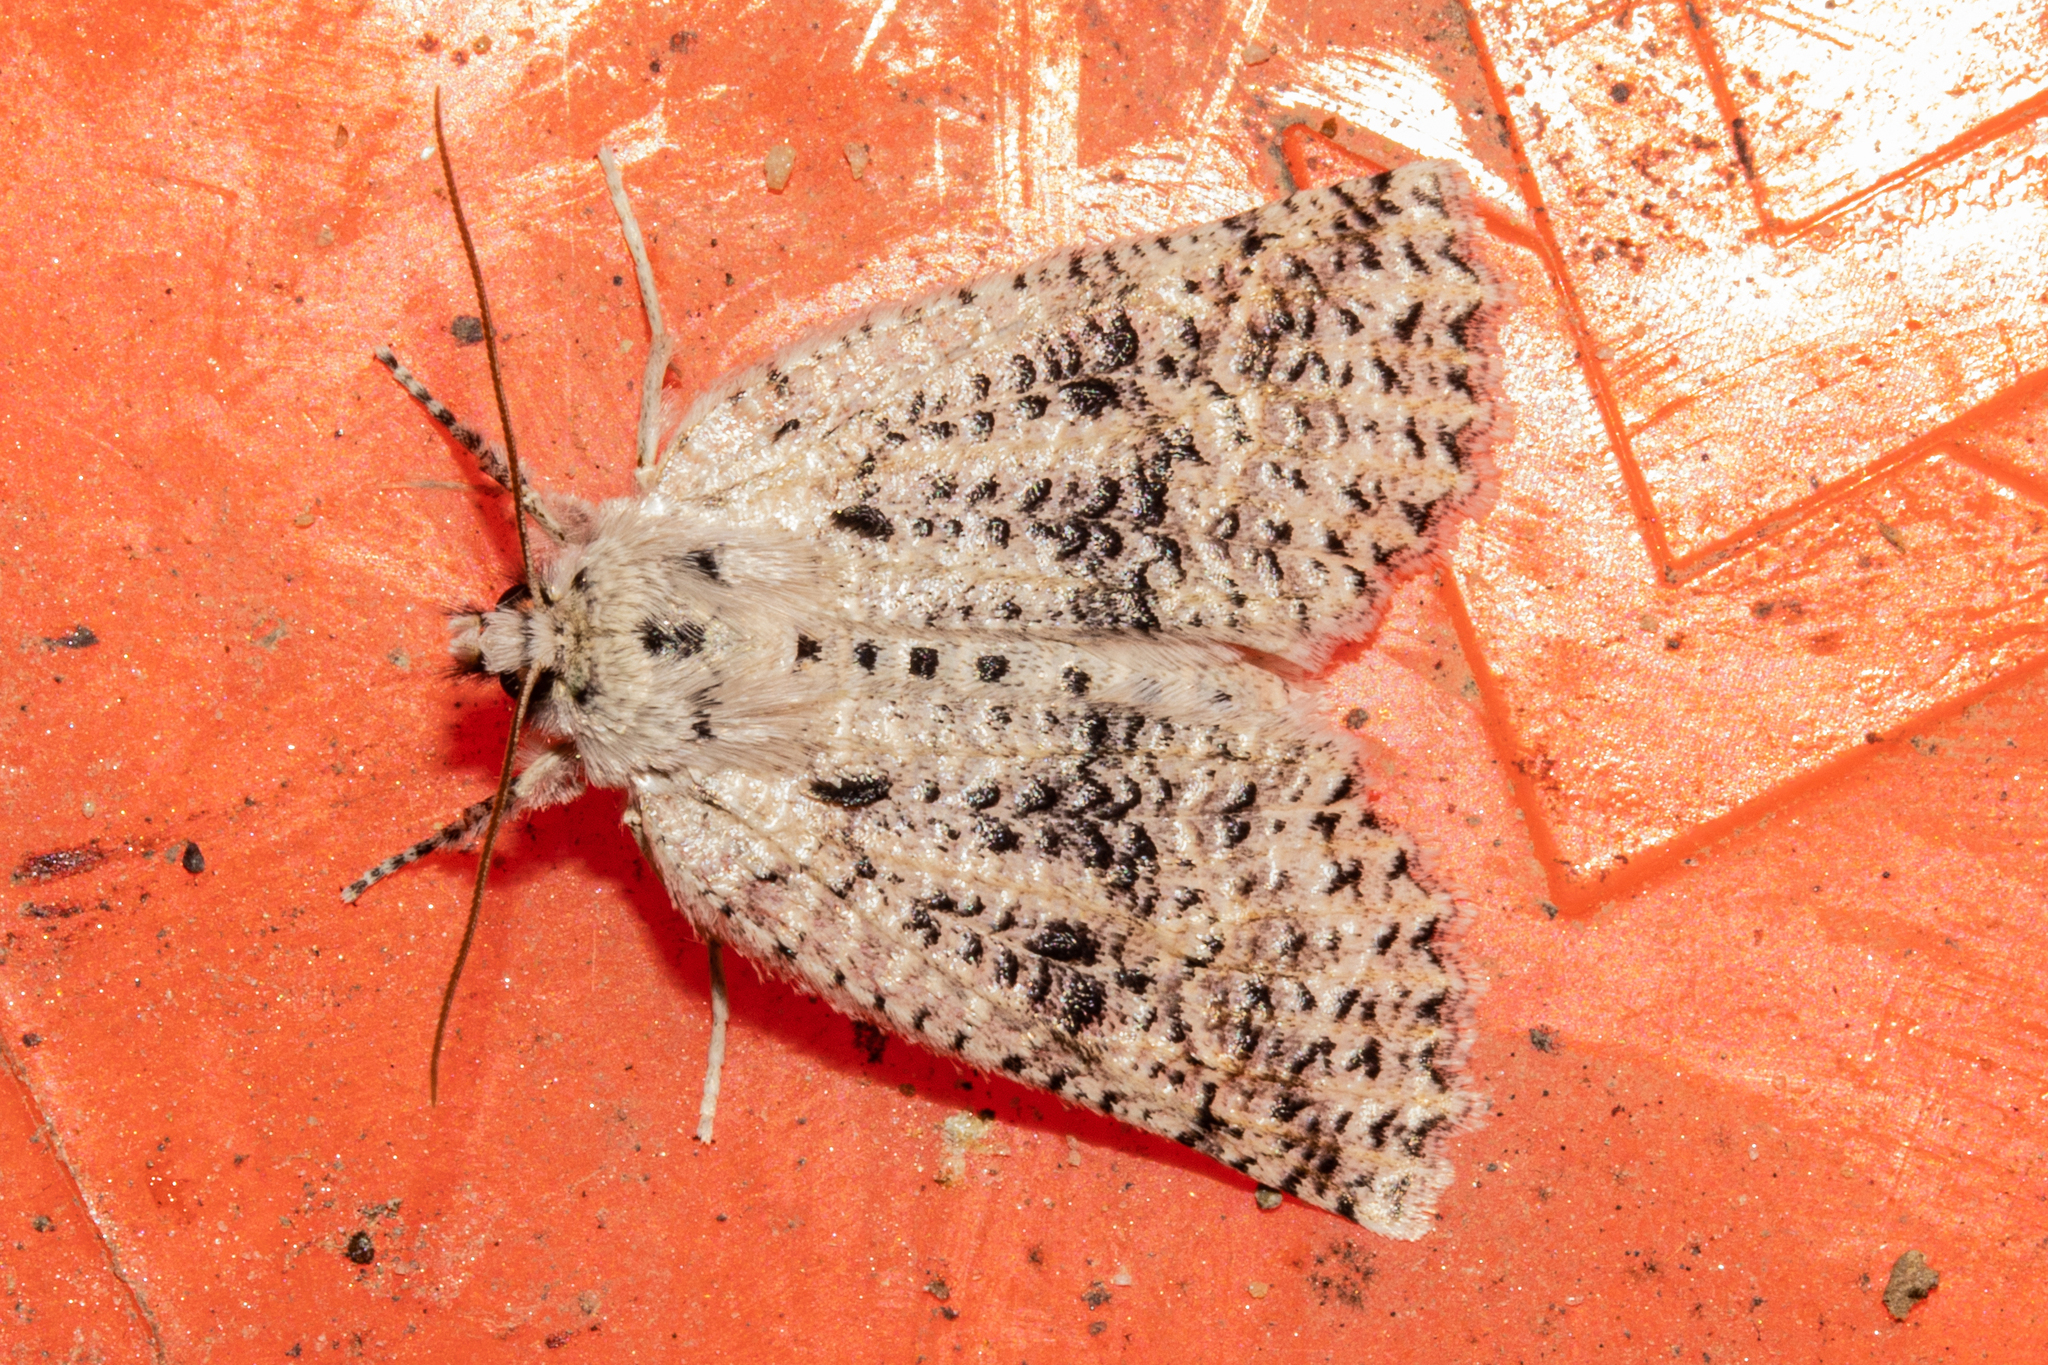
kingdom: Animalia
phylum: Arthropoda
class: Insecta
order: Lepidoptera
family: Geometridae
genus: Declana
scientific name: Declana floccosa
